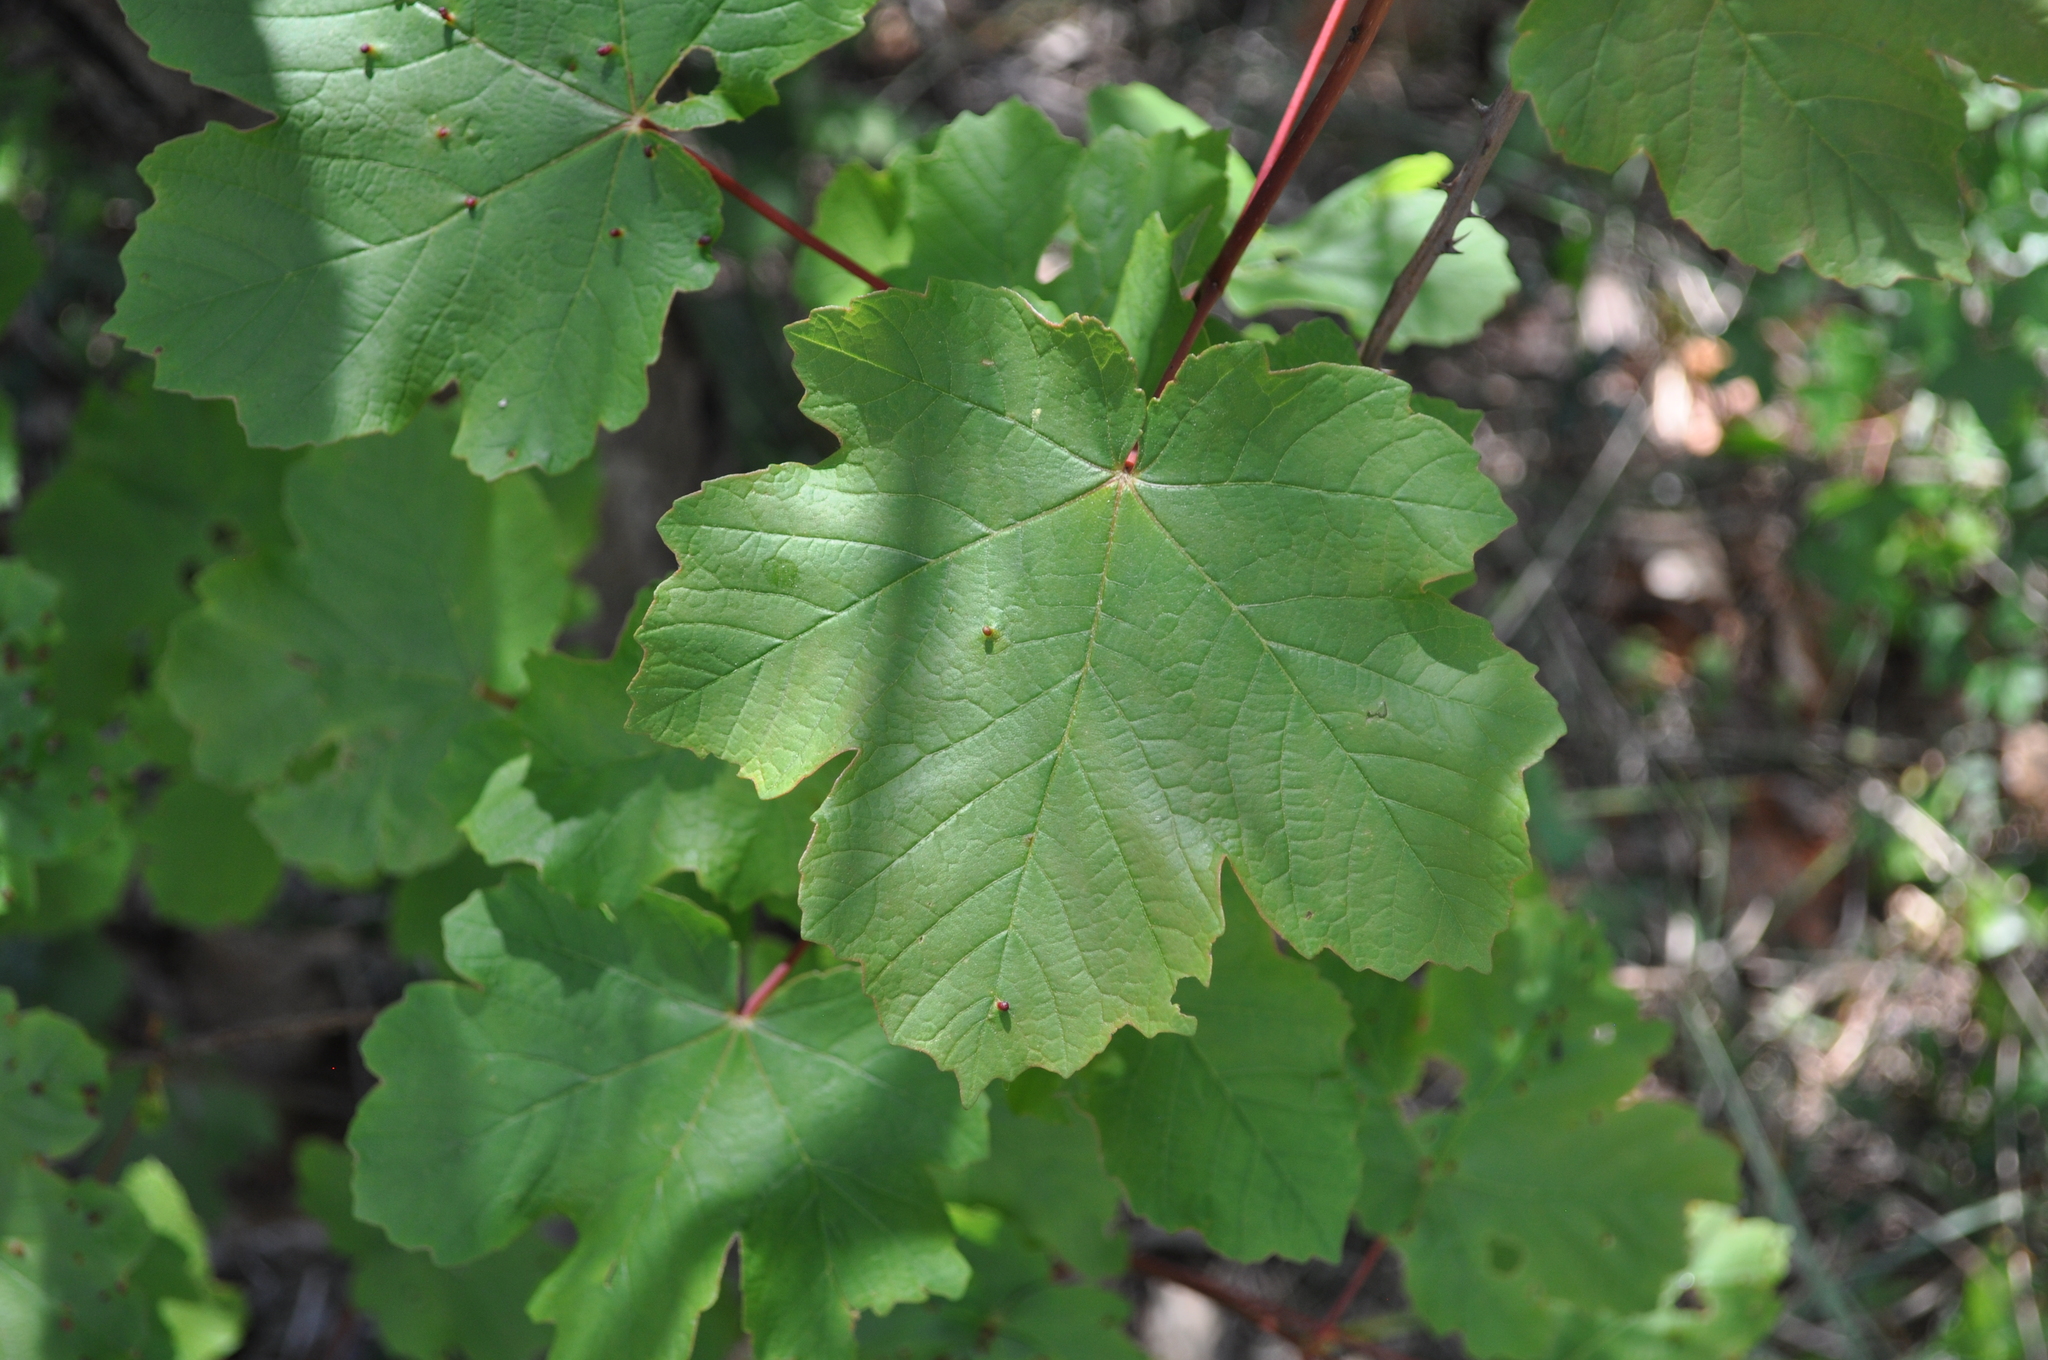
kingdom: Plantae
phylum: Tracheophyta
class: Magnoliopsida
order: Sapindales
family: Sapindaceae
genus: Acer
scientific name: Acer opalus
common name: Italian maple
